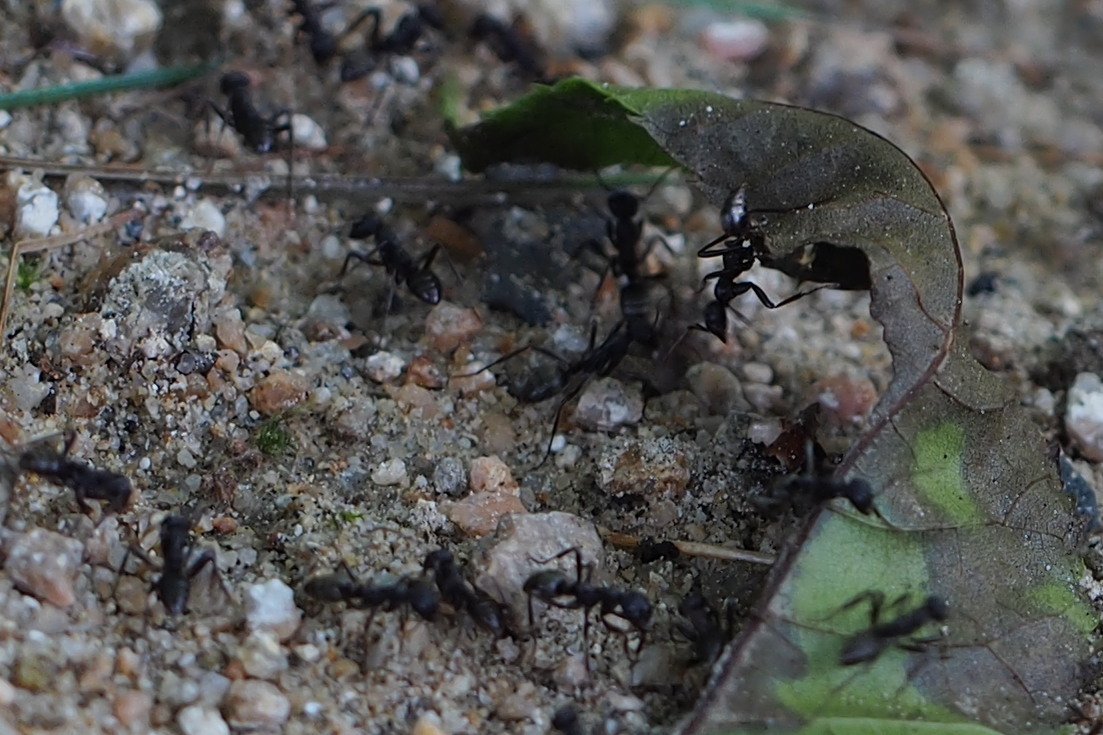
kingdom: Animalia
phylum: Arthropoda
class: Insecta
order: Hymenoptera
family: Formicidae
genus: Polyergus
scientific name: Polyergus samurai
